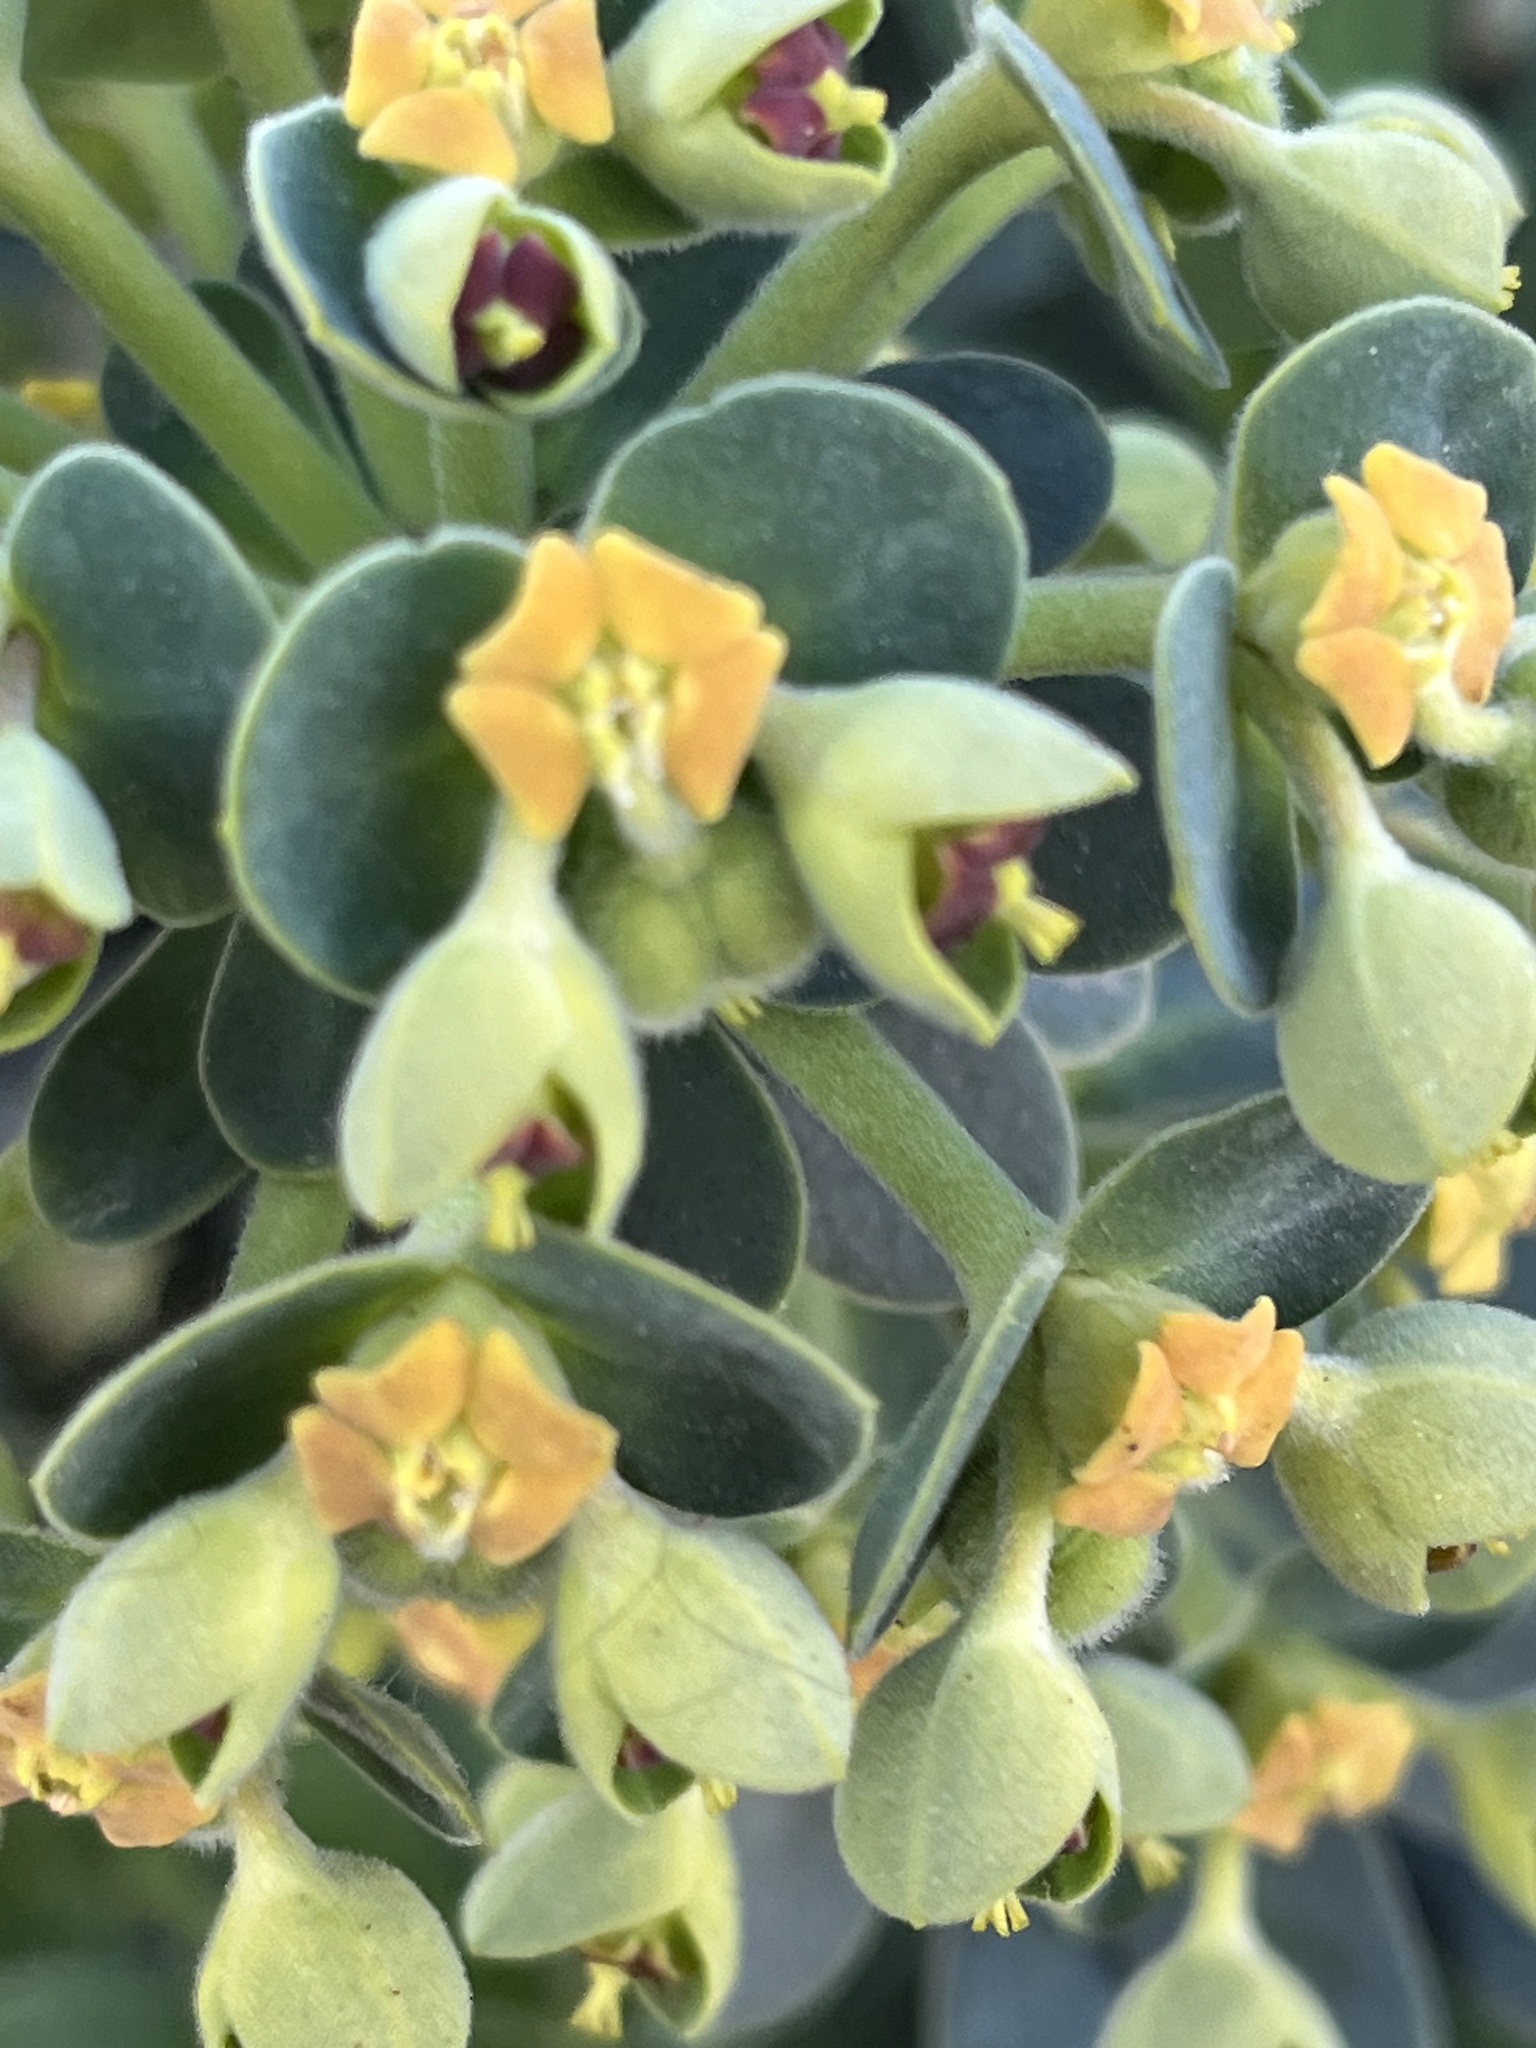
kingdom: Plantae
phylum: Tracheophyta
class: Magnoliopsida
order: Malvales
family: Cistaceae
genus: Cistus
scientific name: Cistus salviifolius
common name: Salvia cistus
